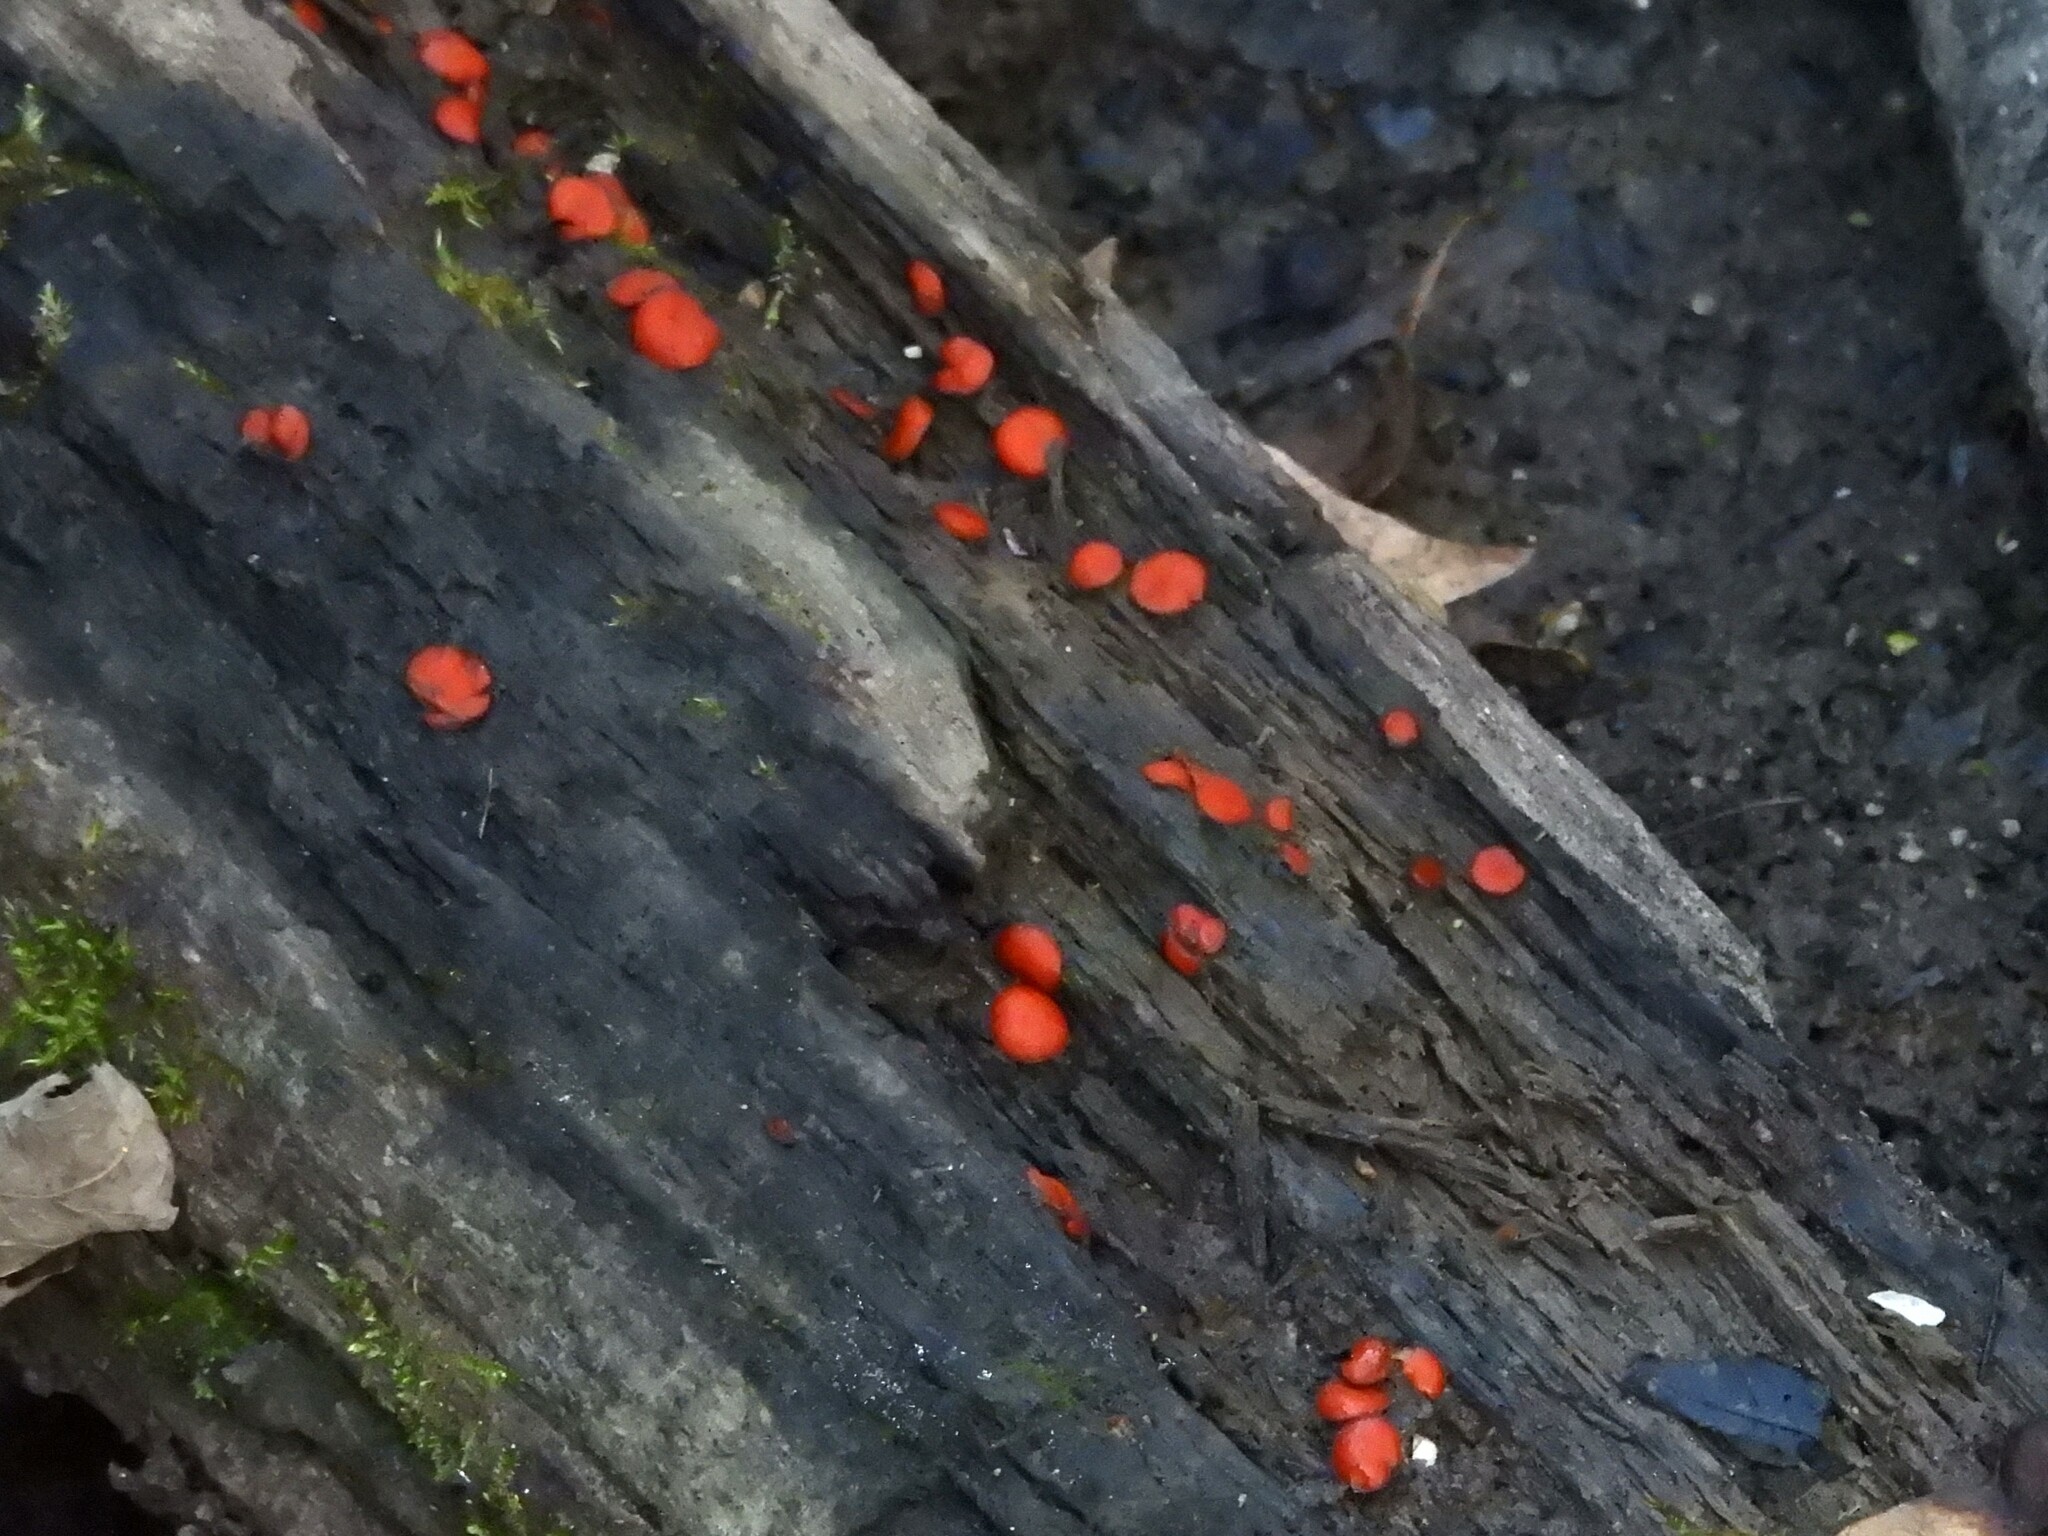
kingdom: Fungi
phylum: Ascomycota
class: Pezizomycetes
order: Pezizales
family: Pyronemataceae
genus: Scutellinia
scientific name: Scutellinia scutellata
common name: Common eyelash
